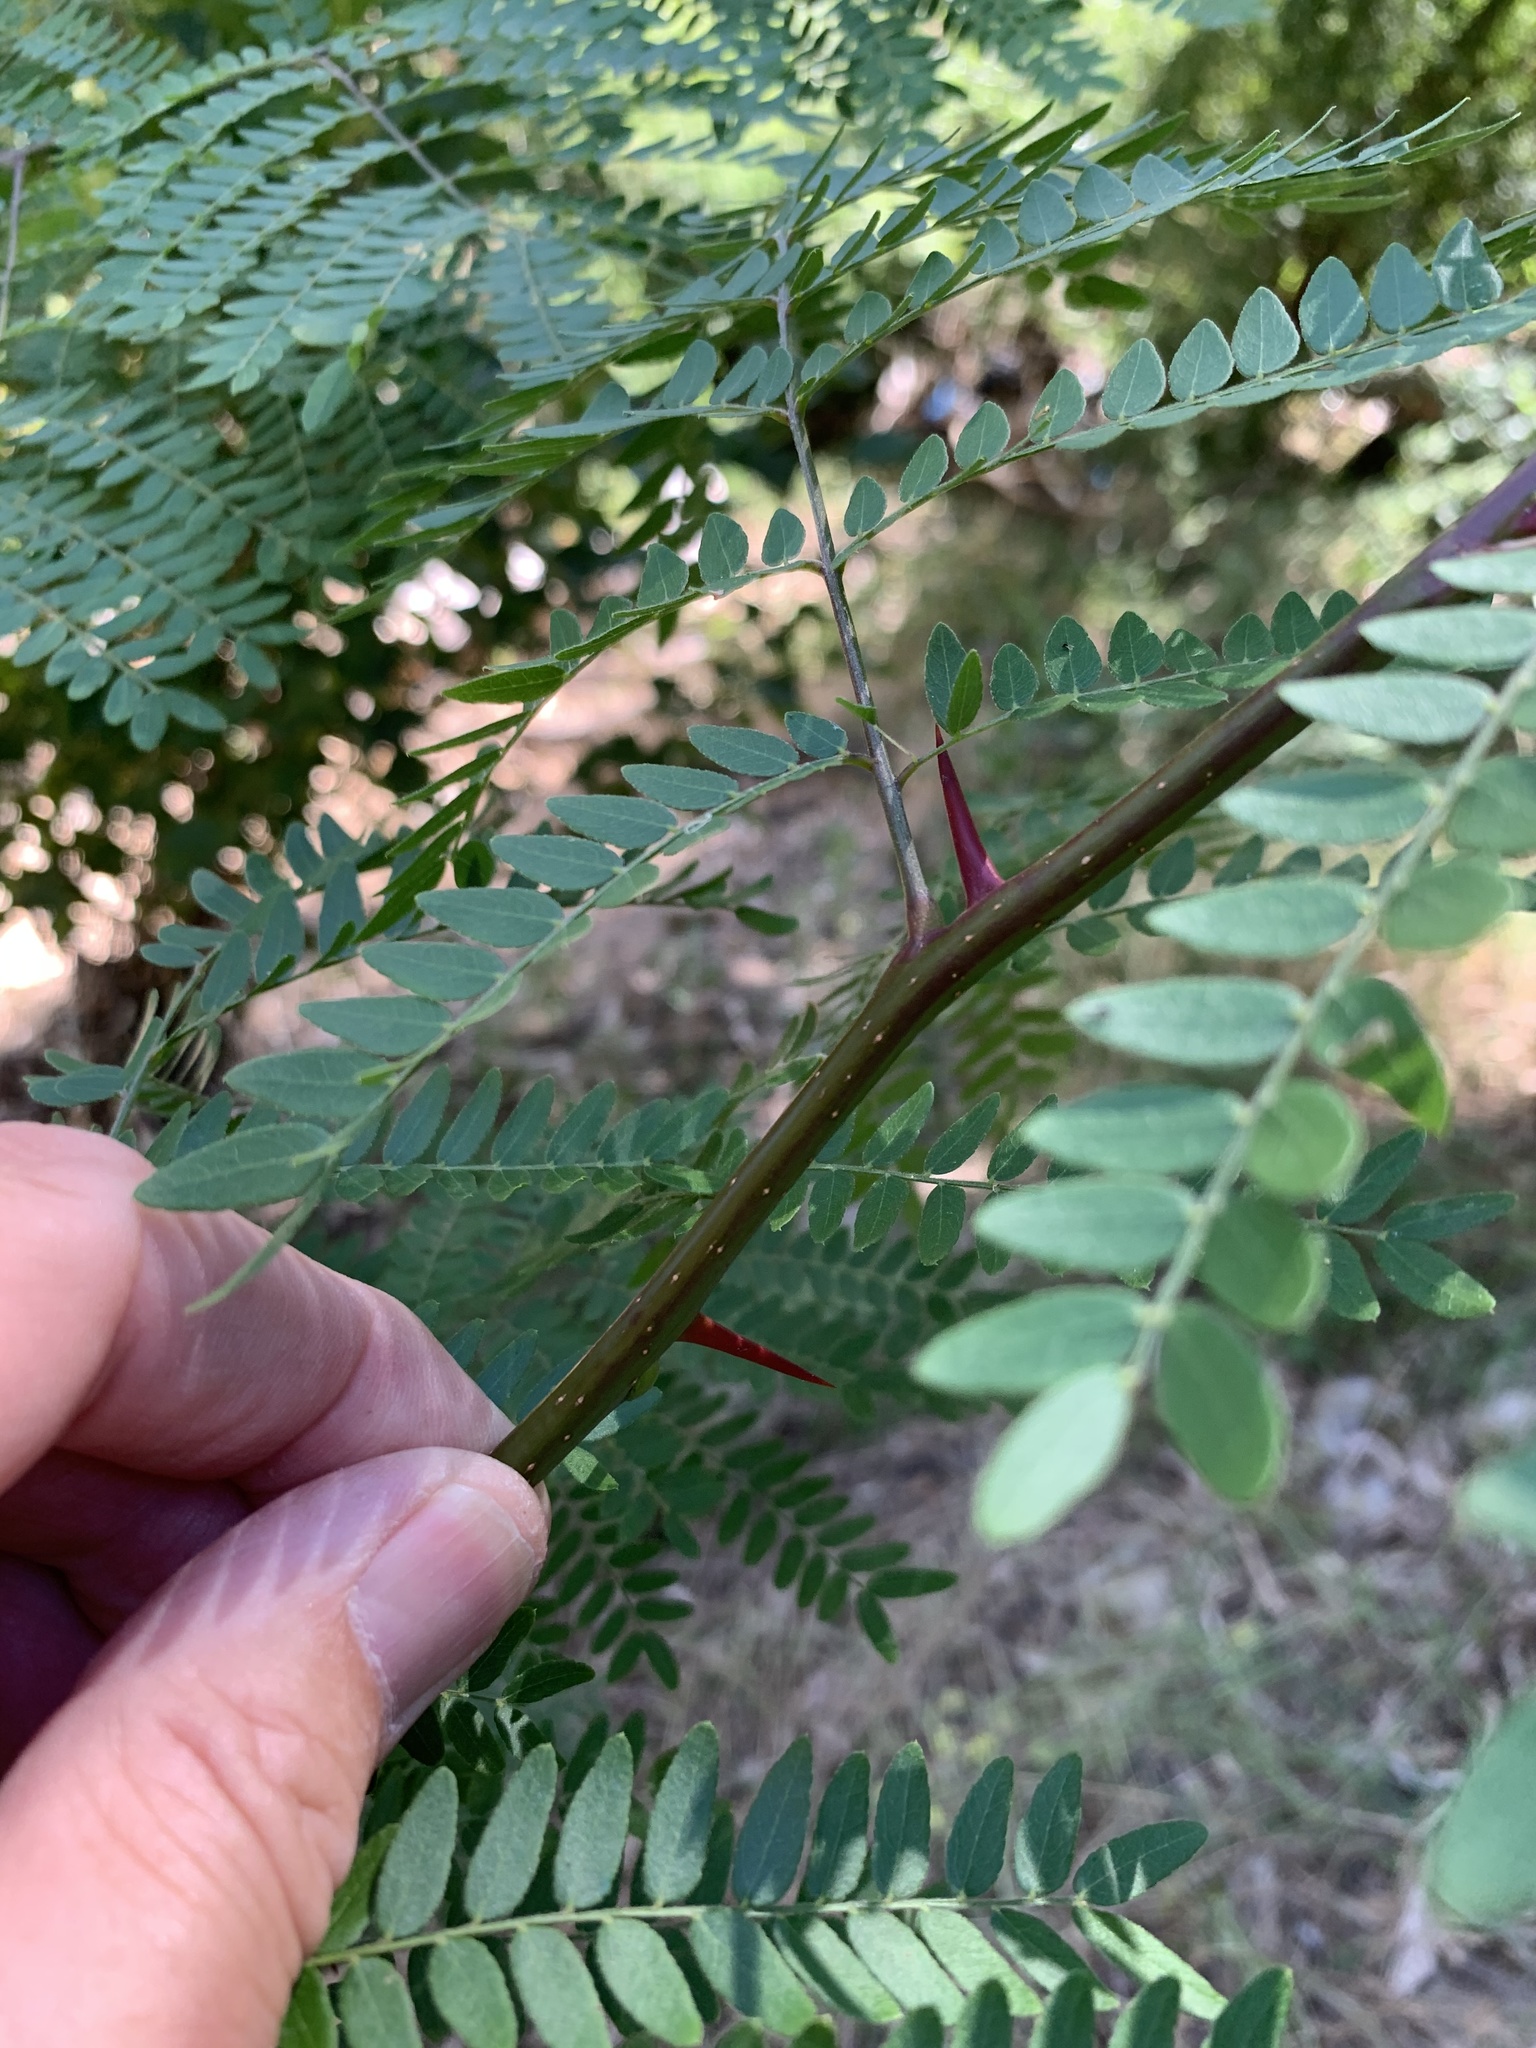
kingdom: Plantae
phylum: Tracheophyta
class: Magnoliopsida
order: Fabales
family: Fabaceae
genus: Gleditsia
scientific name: Gleditsia triacanthos
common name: Common honeylocust
